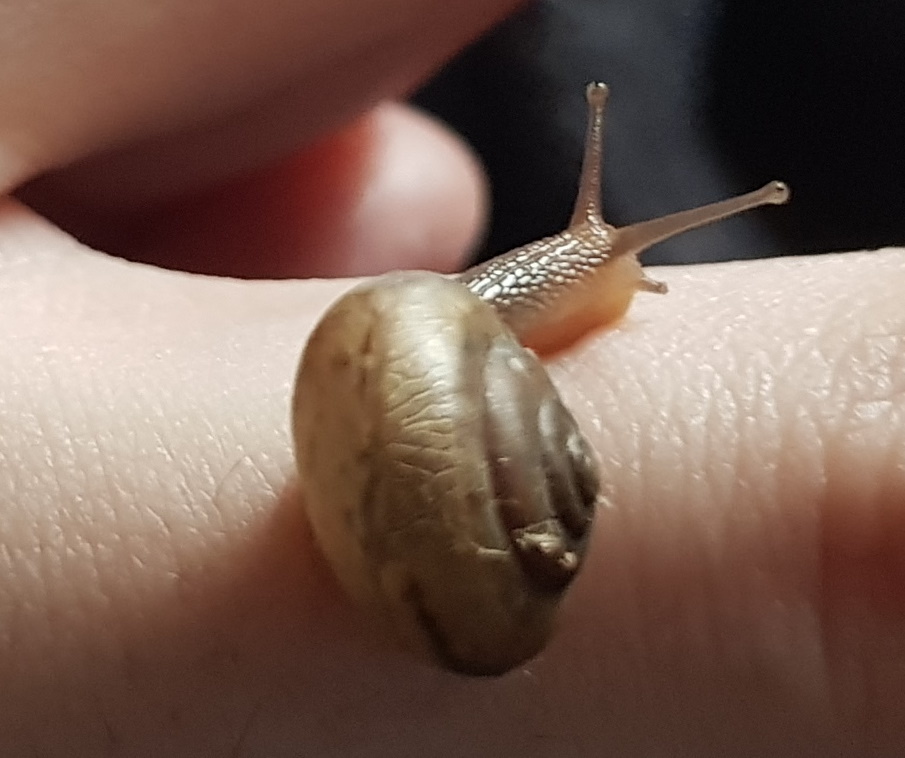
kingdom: Animalia
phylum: Mollusca
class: Gastropoda
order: Stylommatophora
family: Camaenidae
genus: Bradybaena
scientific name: Bradybaena similaris
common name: Asian trampsnail
